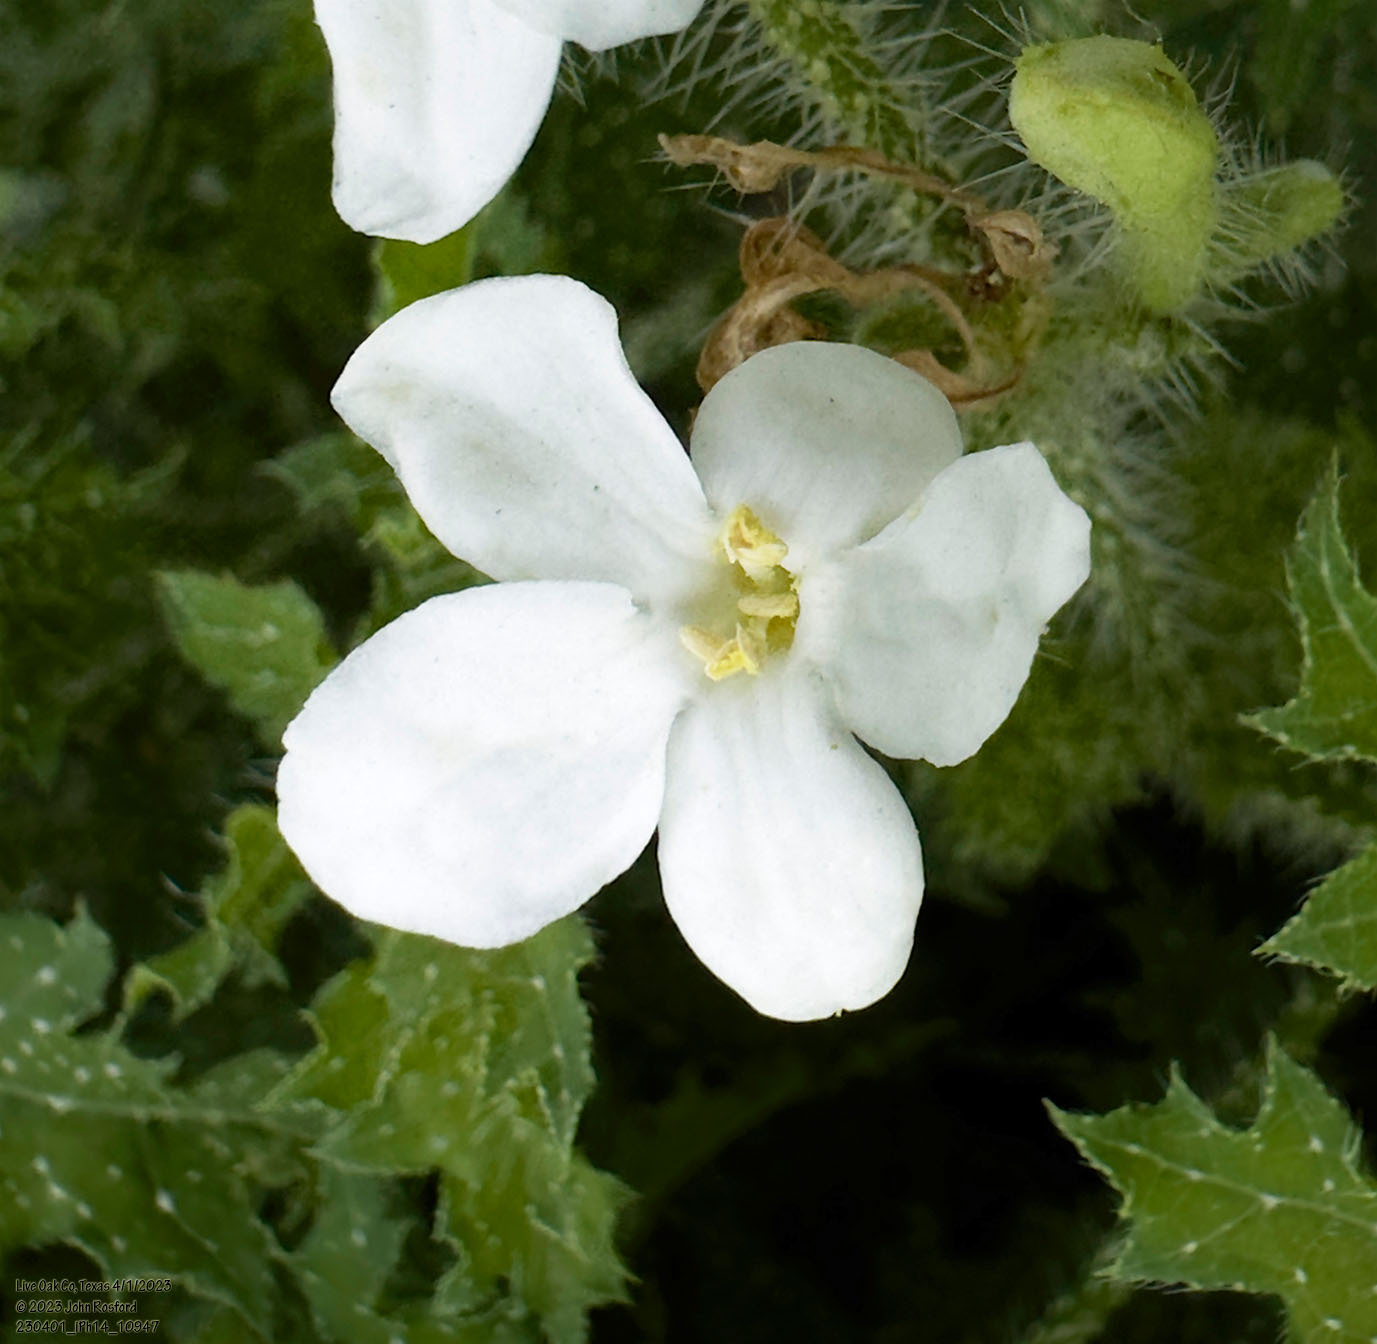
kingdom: Plantae
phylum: Tracheophyta
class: Magnoliopsida
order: Malpighiales
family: Euphorbiaceae
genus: Cnidoscolus
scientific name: Cnidoscolus texanus
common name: Texas bull-nettle
